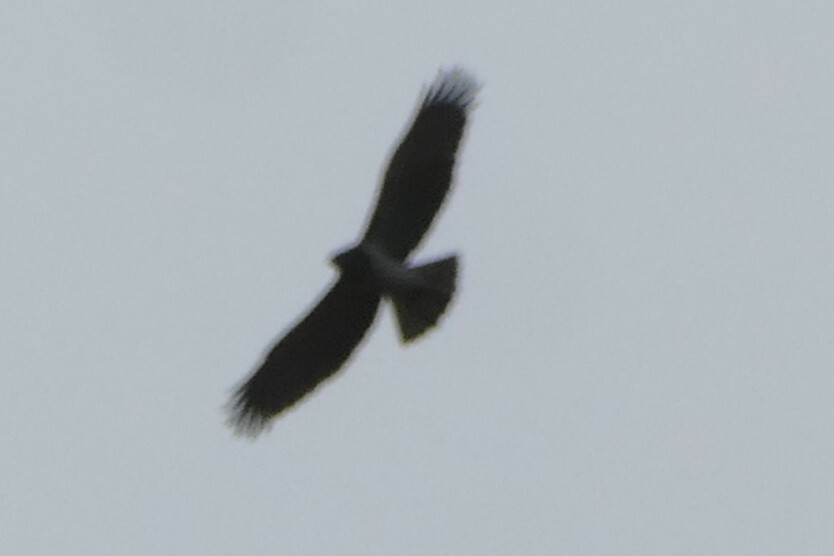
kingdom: Animalia
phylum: Chordata
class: Aves
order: Accipitriformes
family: Accipitridae
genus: Circaetus
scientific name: Circaetus gallicus
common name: Short-toed snake eagle
